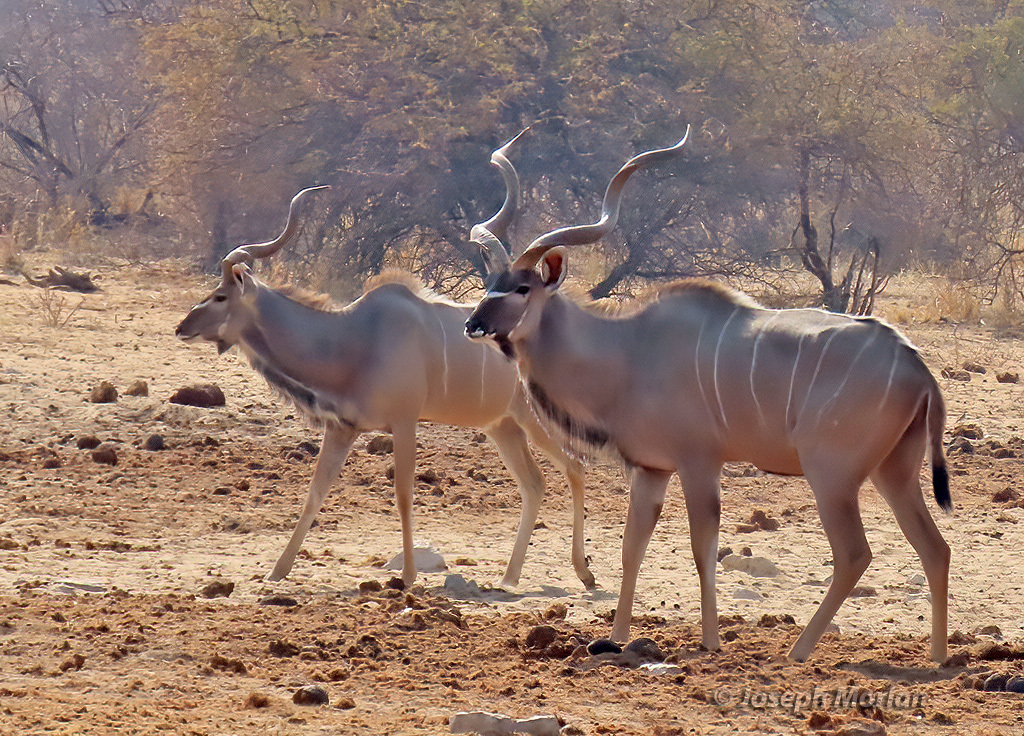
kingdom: Animalia
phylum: Chordata
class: Mammalia
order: Artiodactyla
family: Bovidae
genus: Tragelaphus
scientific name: Tragelaphus strepsiceros
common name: Greater kudu
